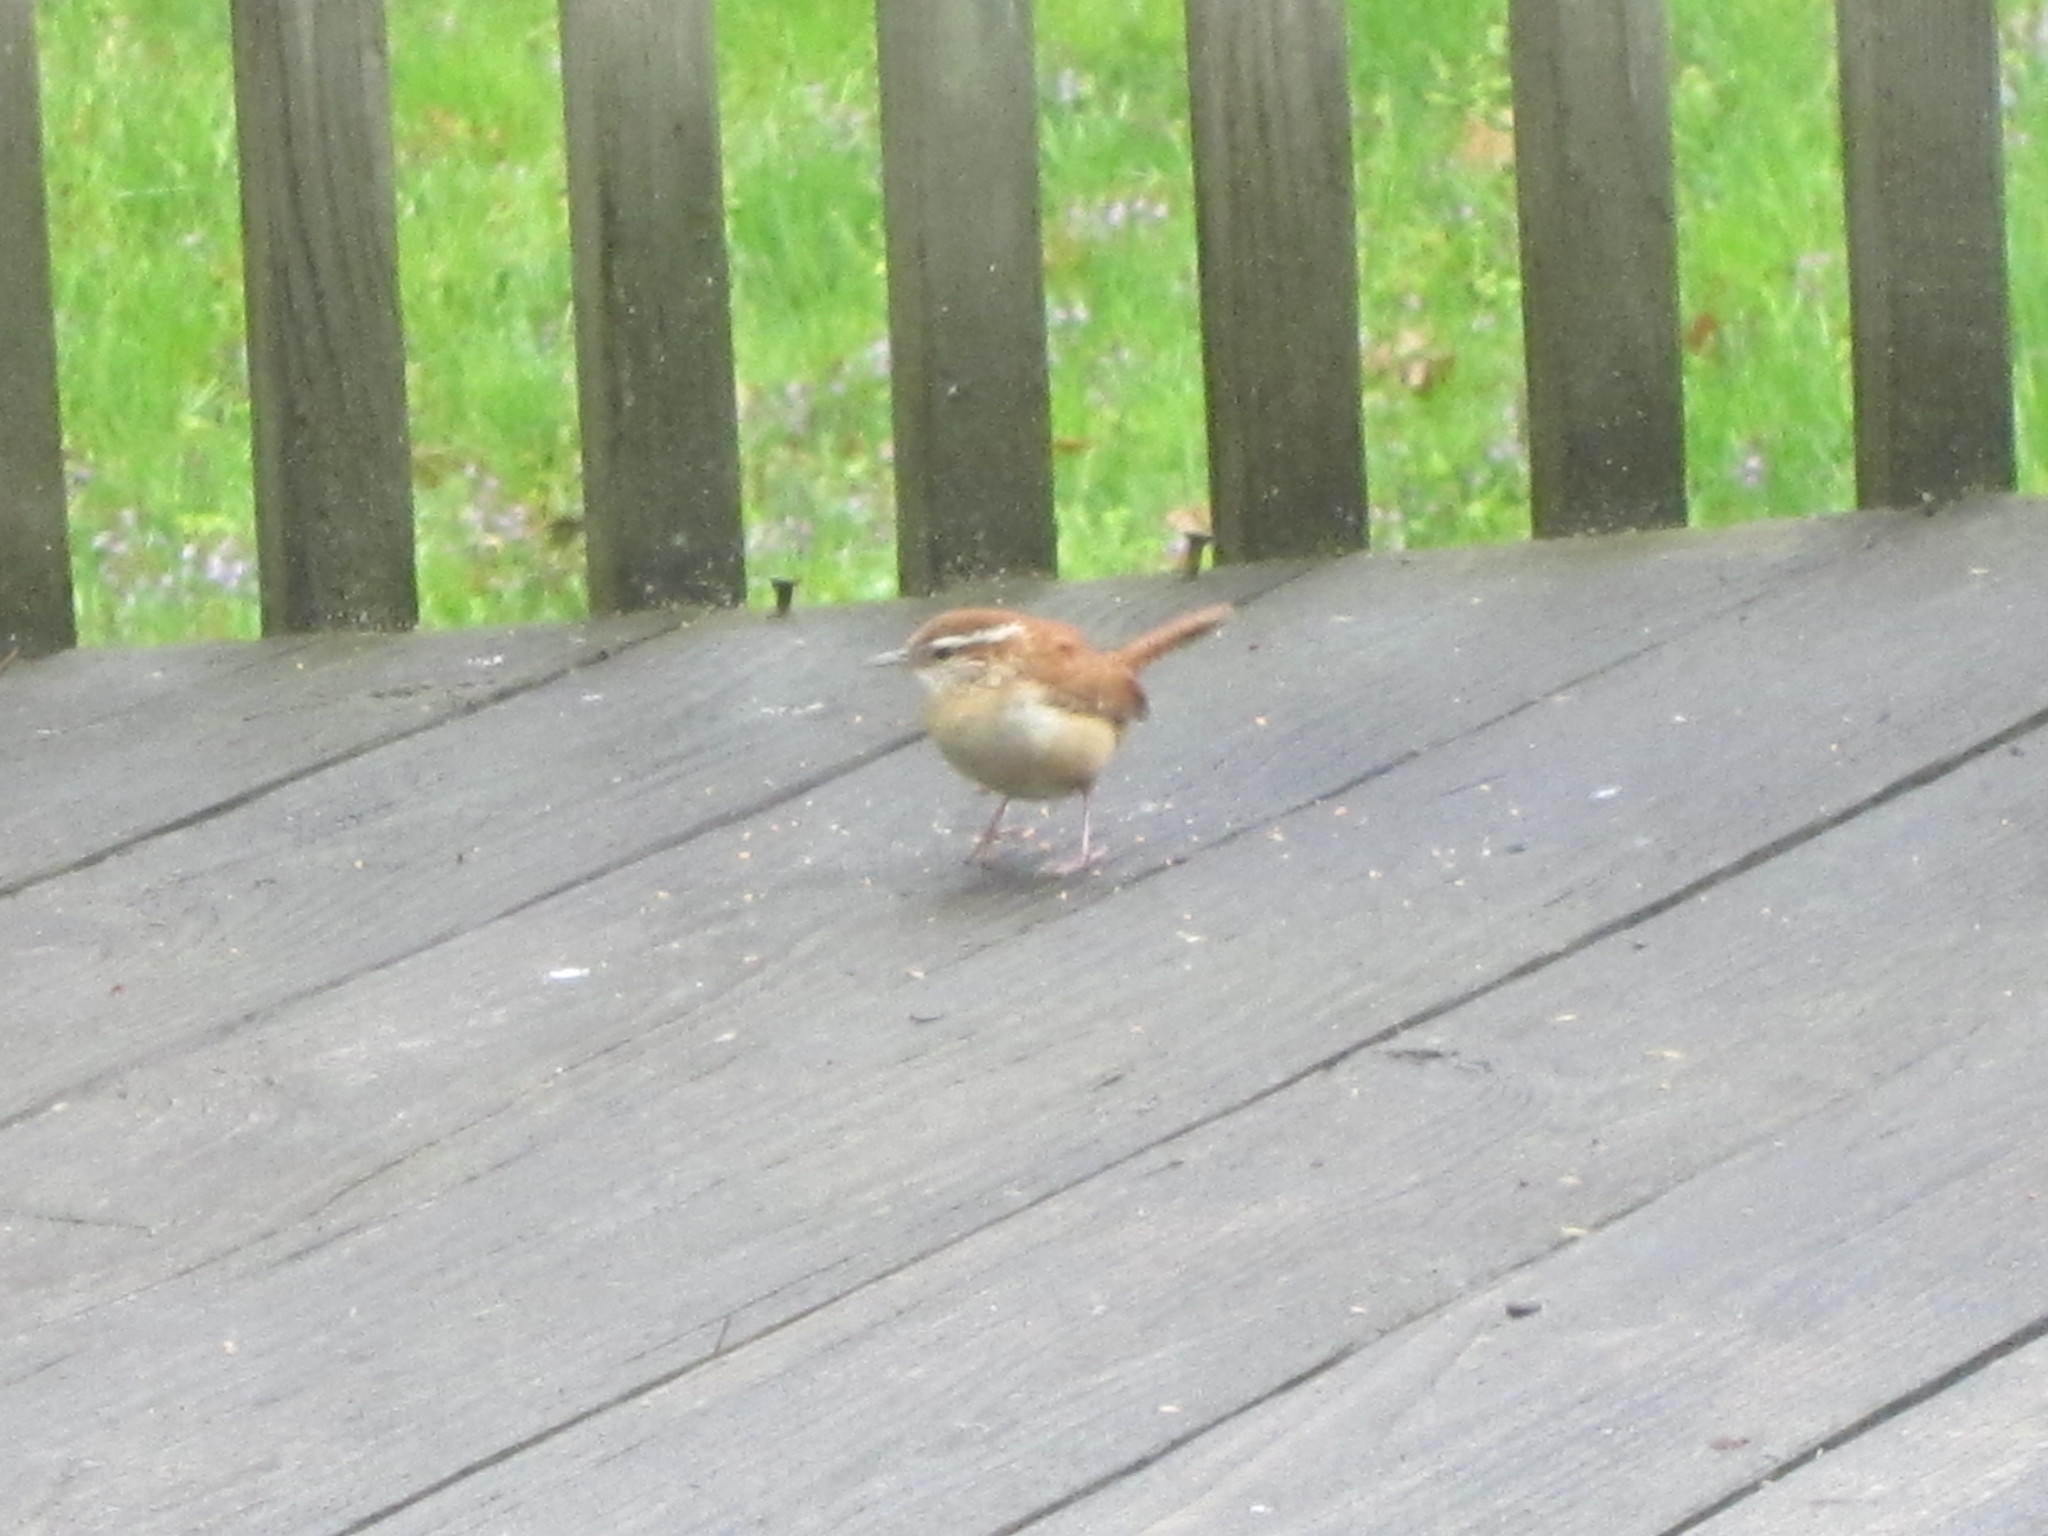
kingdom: Animalia
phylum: Chordata
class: Aves
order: Passeriformes
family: Troglodytidae
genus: Thryothorus
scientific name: Thryothorus ludovicianus
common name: Carolina wren
